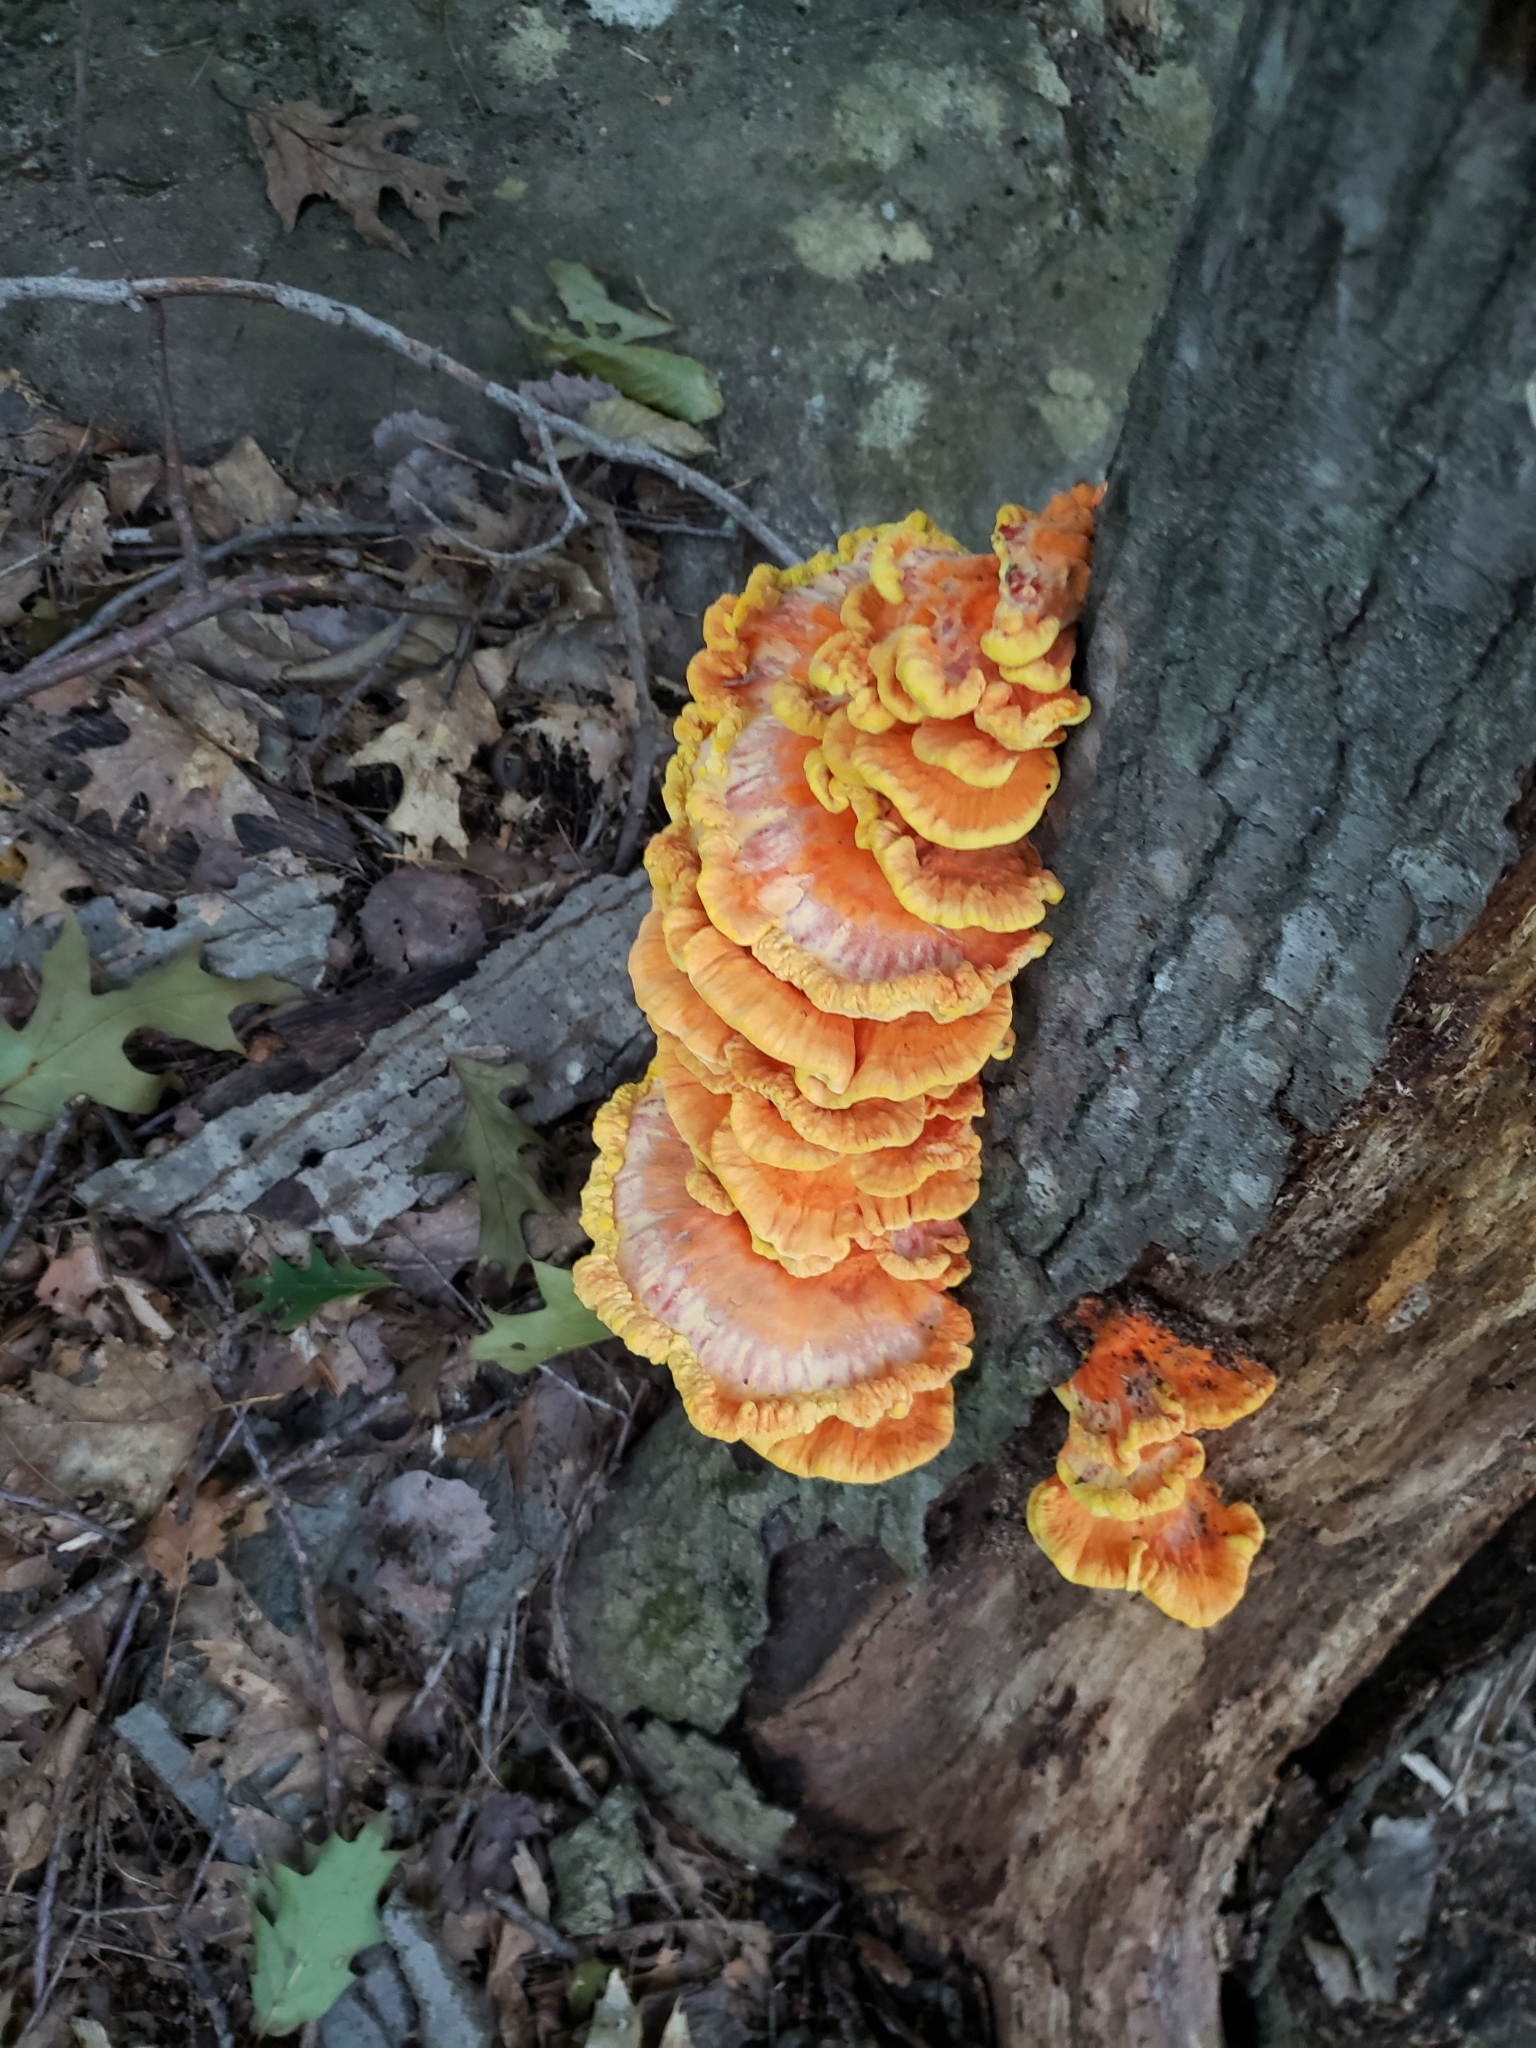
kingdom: Fungi
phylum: Basidiomycota
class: Agaricomycetes
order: Polyporales
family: Laetiporaceae
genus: Laetiporus
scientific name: Laetiporus sulphureus
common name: Chicken of the woods
